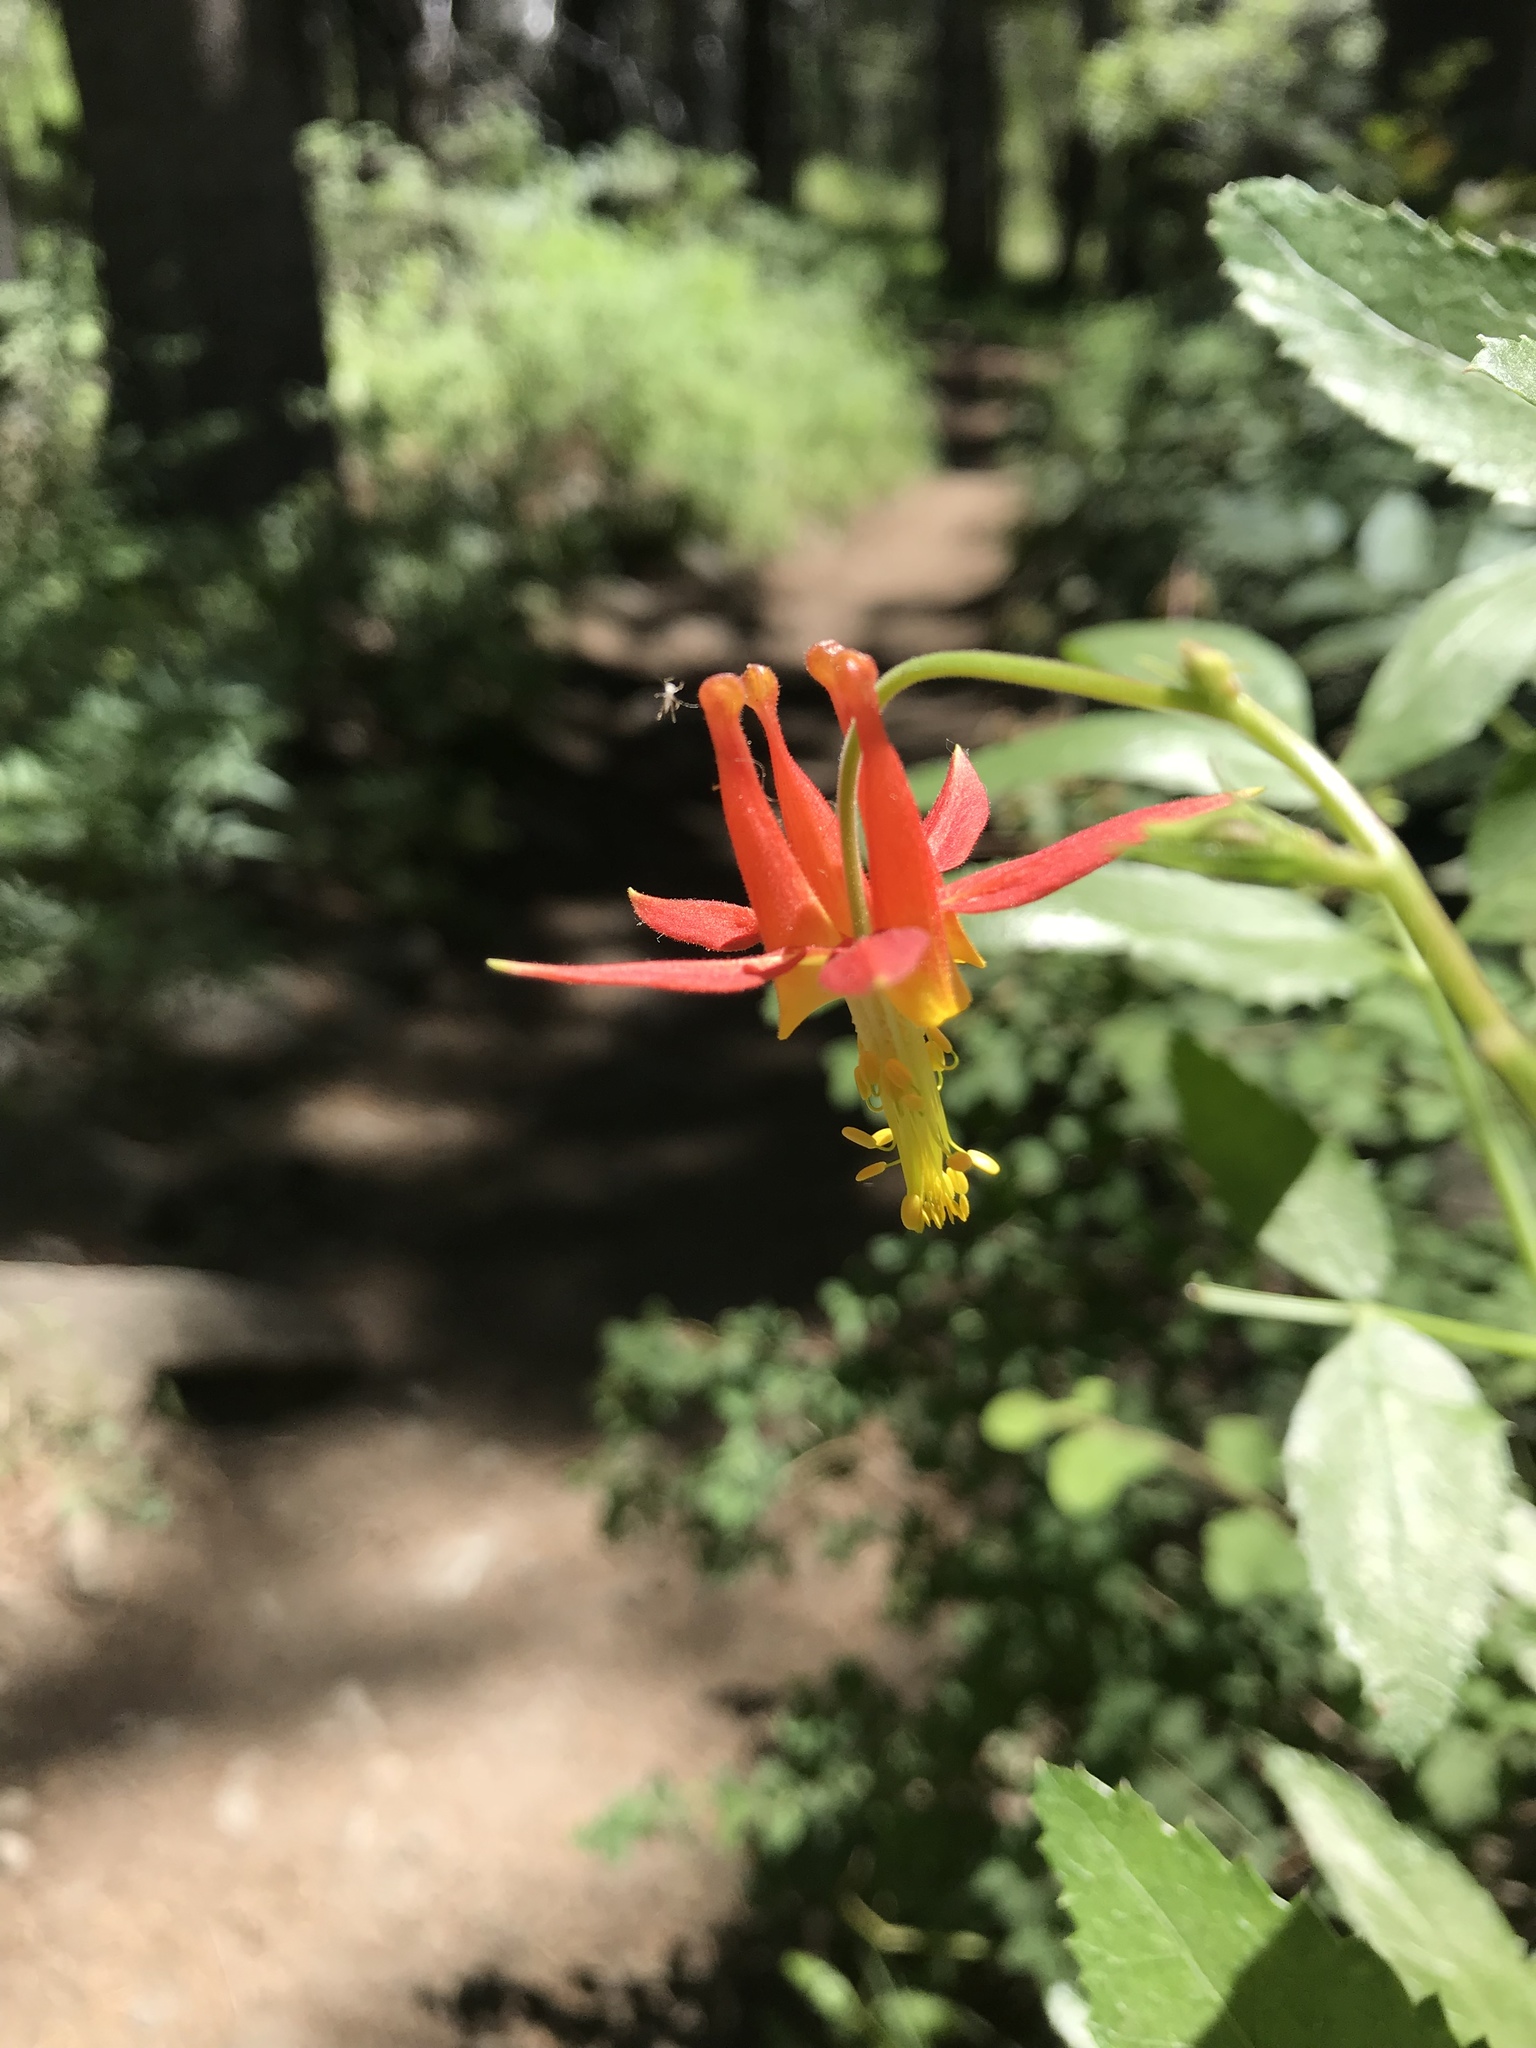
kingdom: Plantae
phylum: Tracheophyta
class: Magnoliopsida
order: Ranunculales
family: Ranunculaceae
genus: Aquilegia
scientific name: Aquilegia formosa
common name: Sitka columbine
